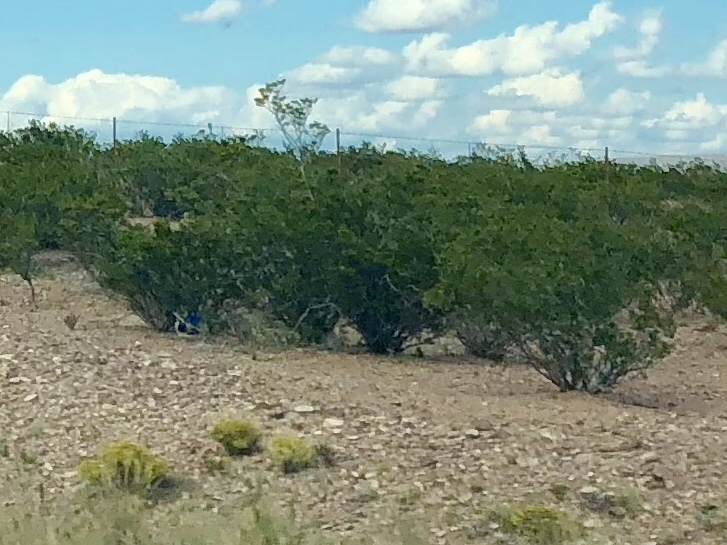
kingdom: Plantae
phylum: Tracheophyta
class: Magnoliopsida
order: Zygophyllales
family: Zygophyllaceae
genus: Larrea
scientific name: Larrea tridentata
